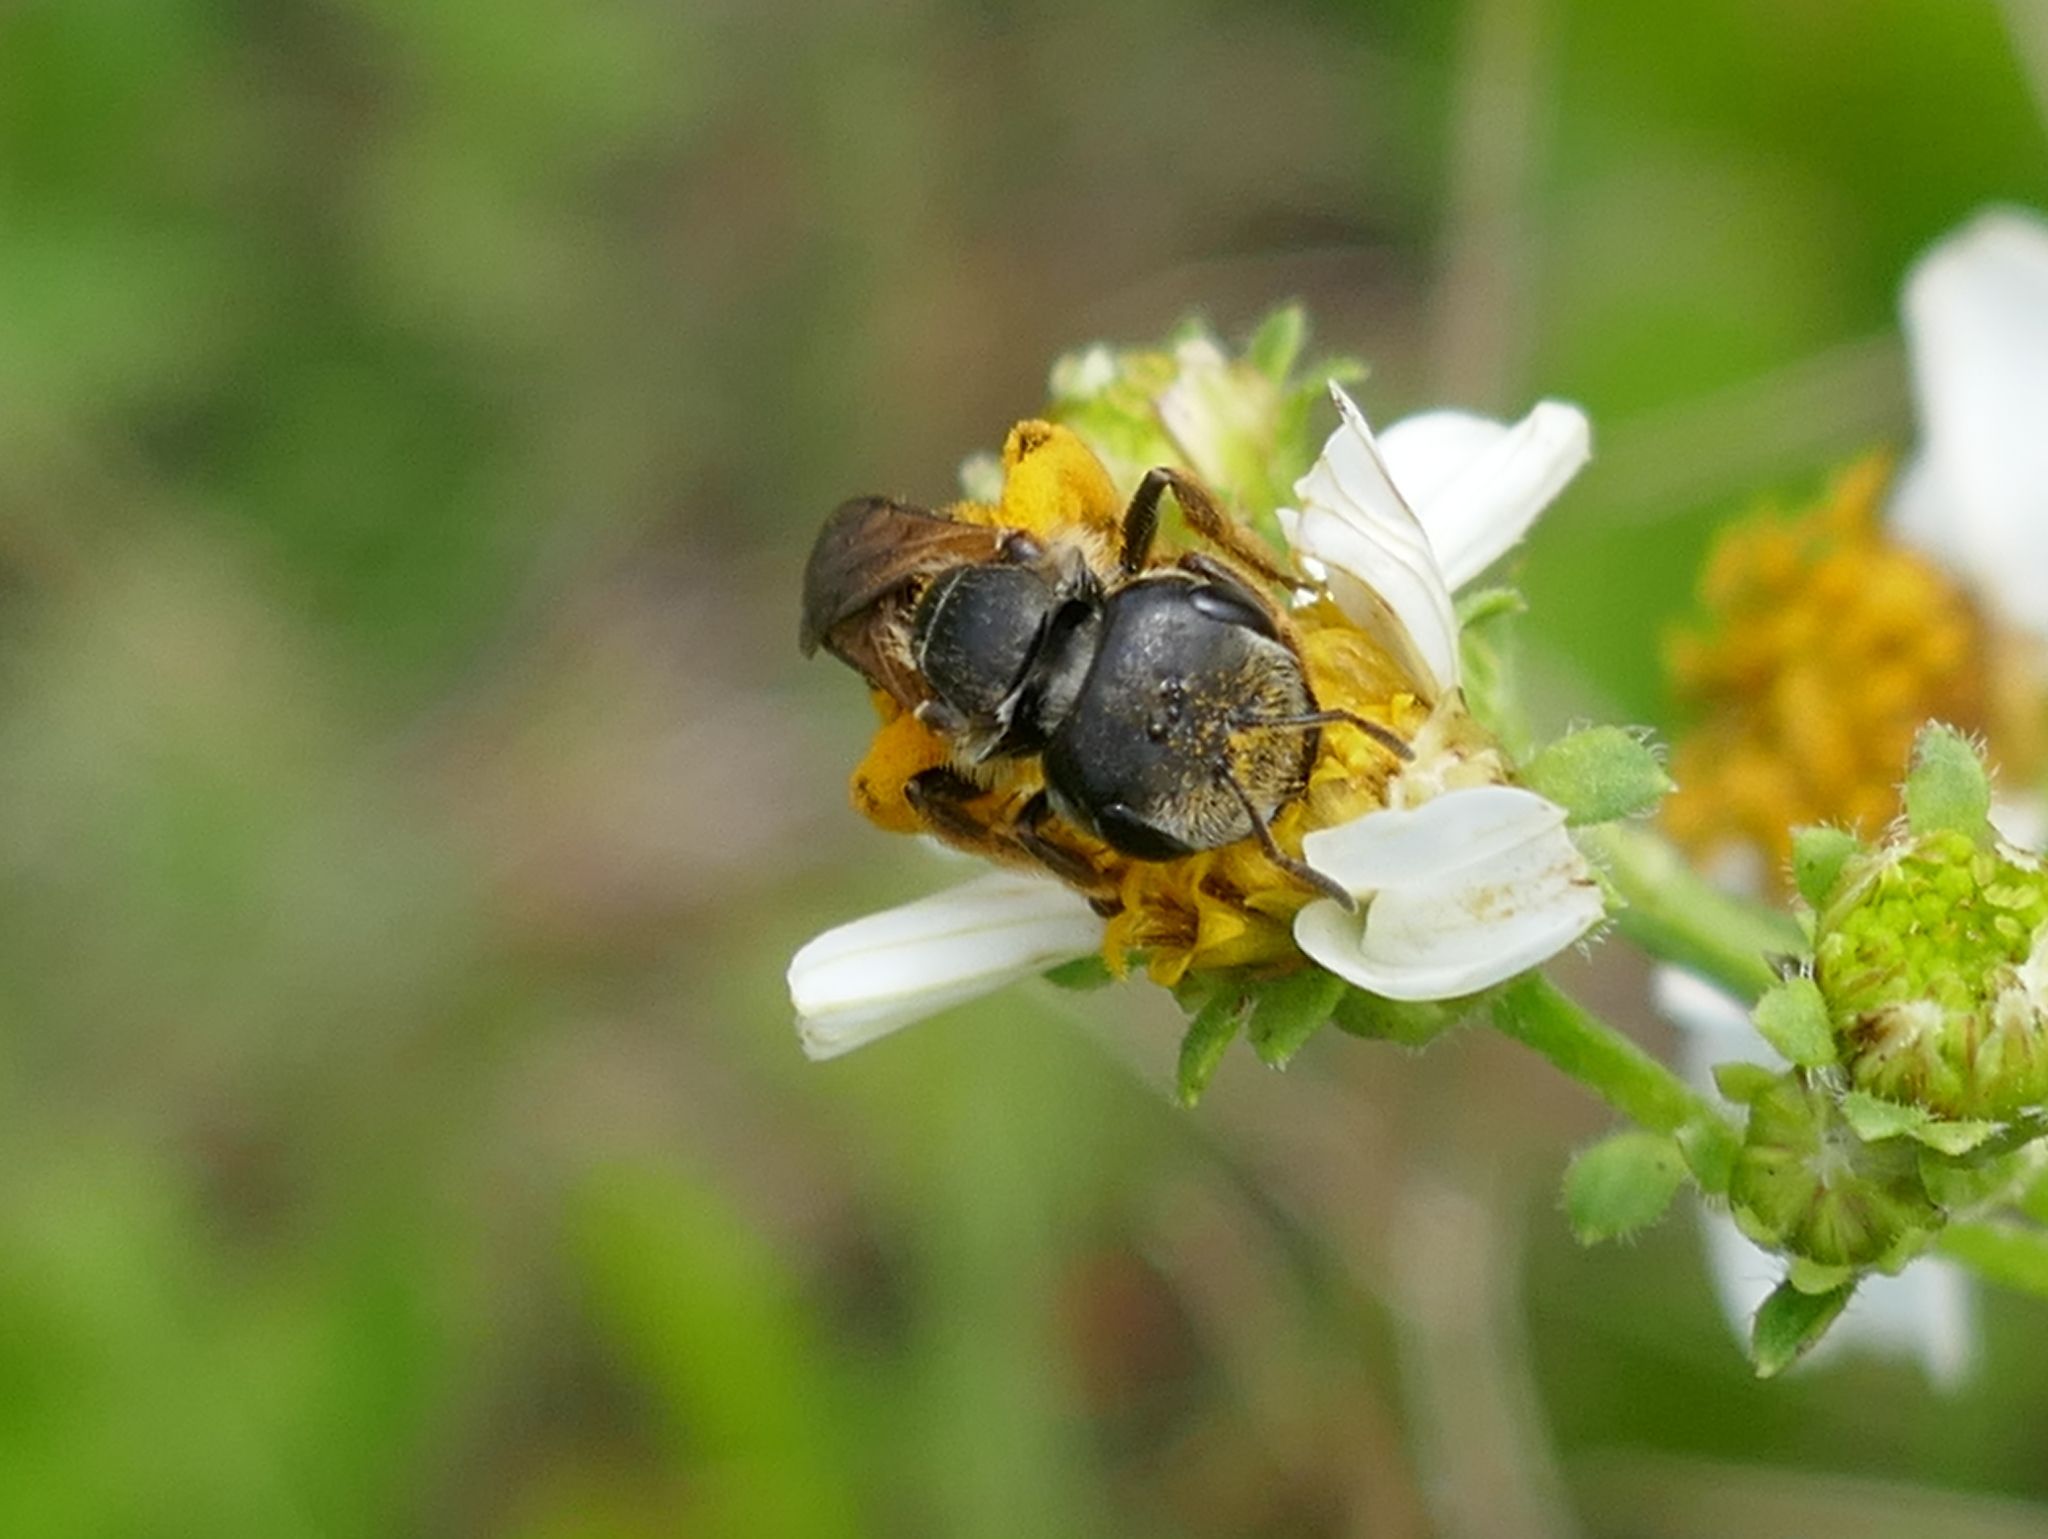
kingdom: Animalia
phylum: Arthropoda
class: Insecta
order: Hymenoptera
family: Halictidae
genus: Halictus
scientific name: Halictus poeyi
